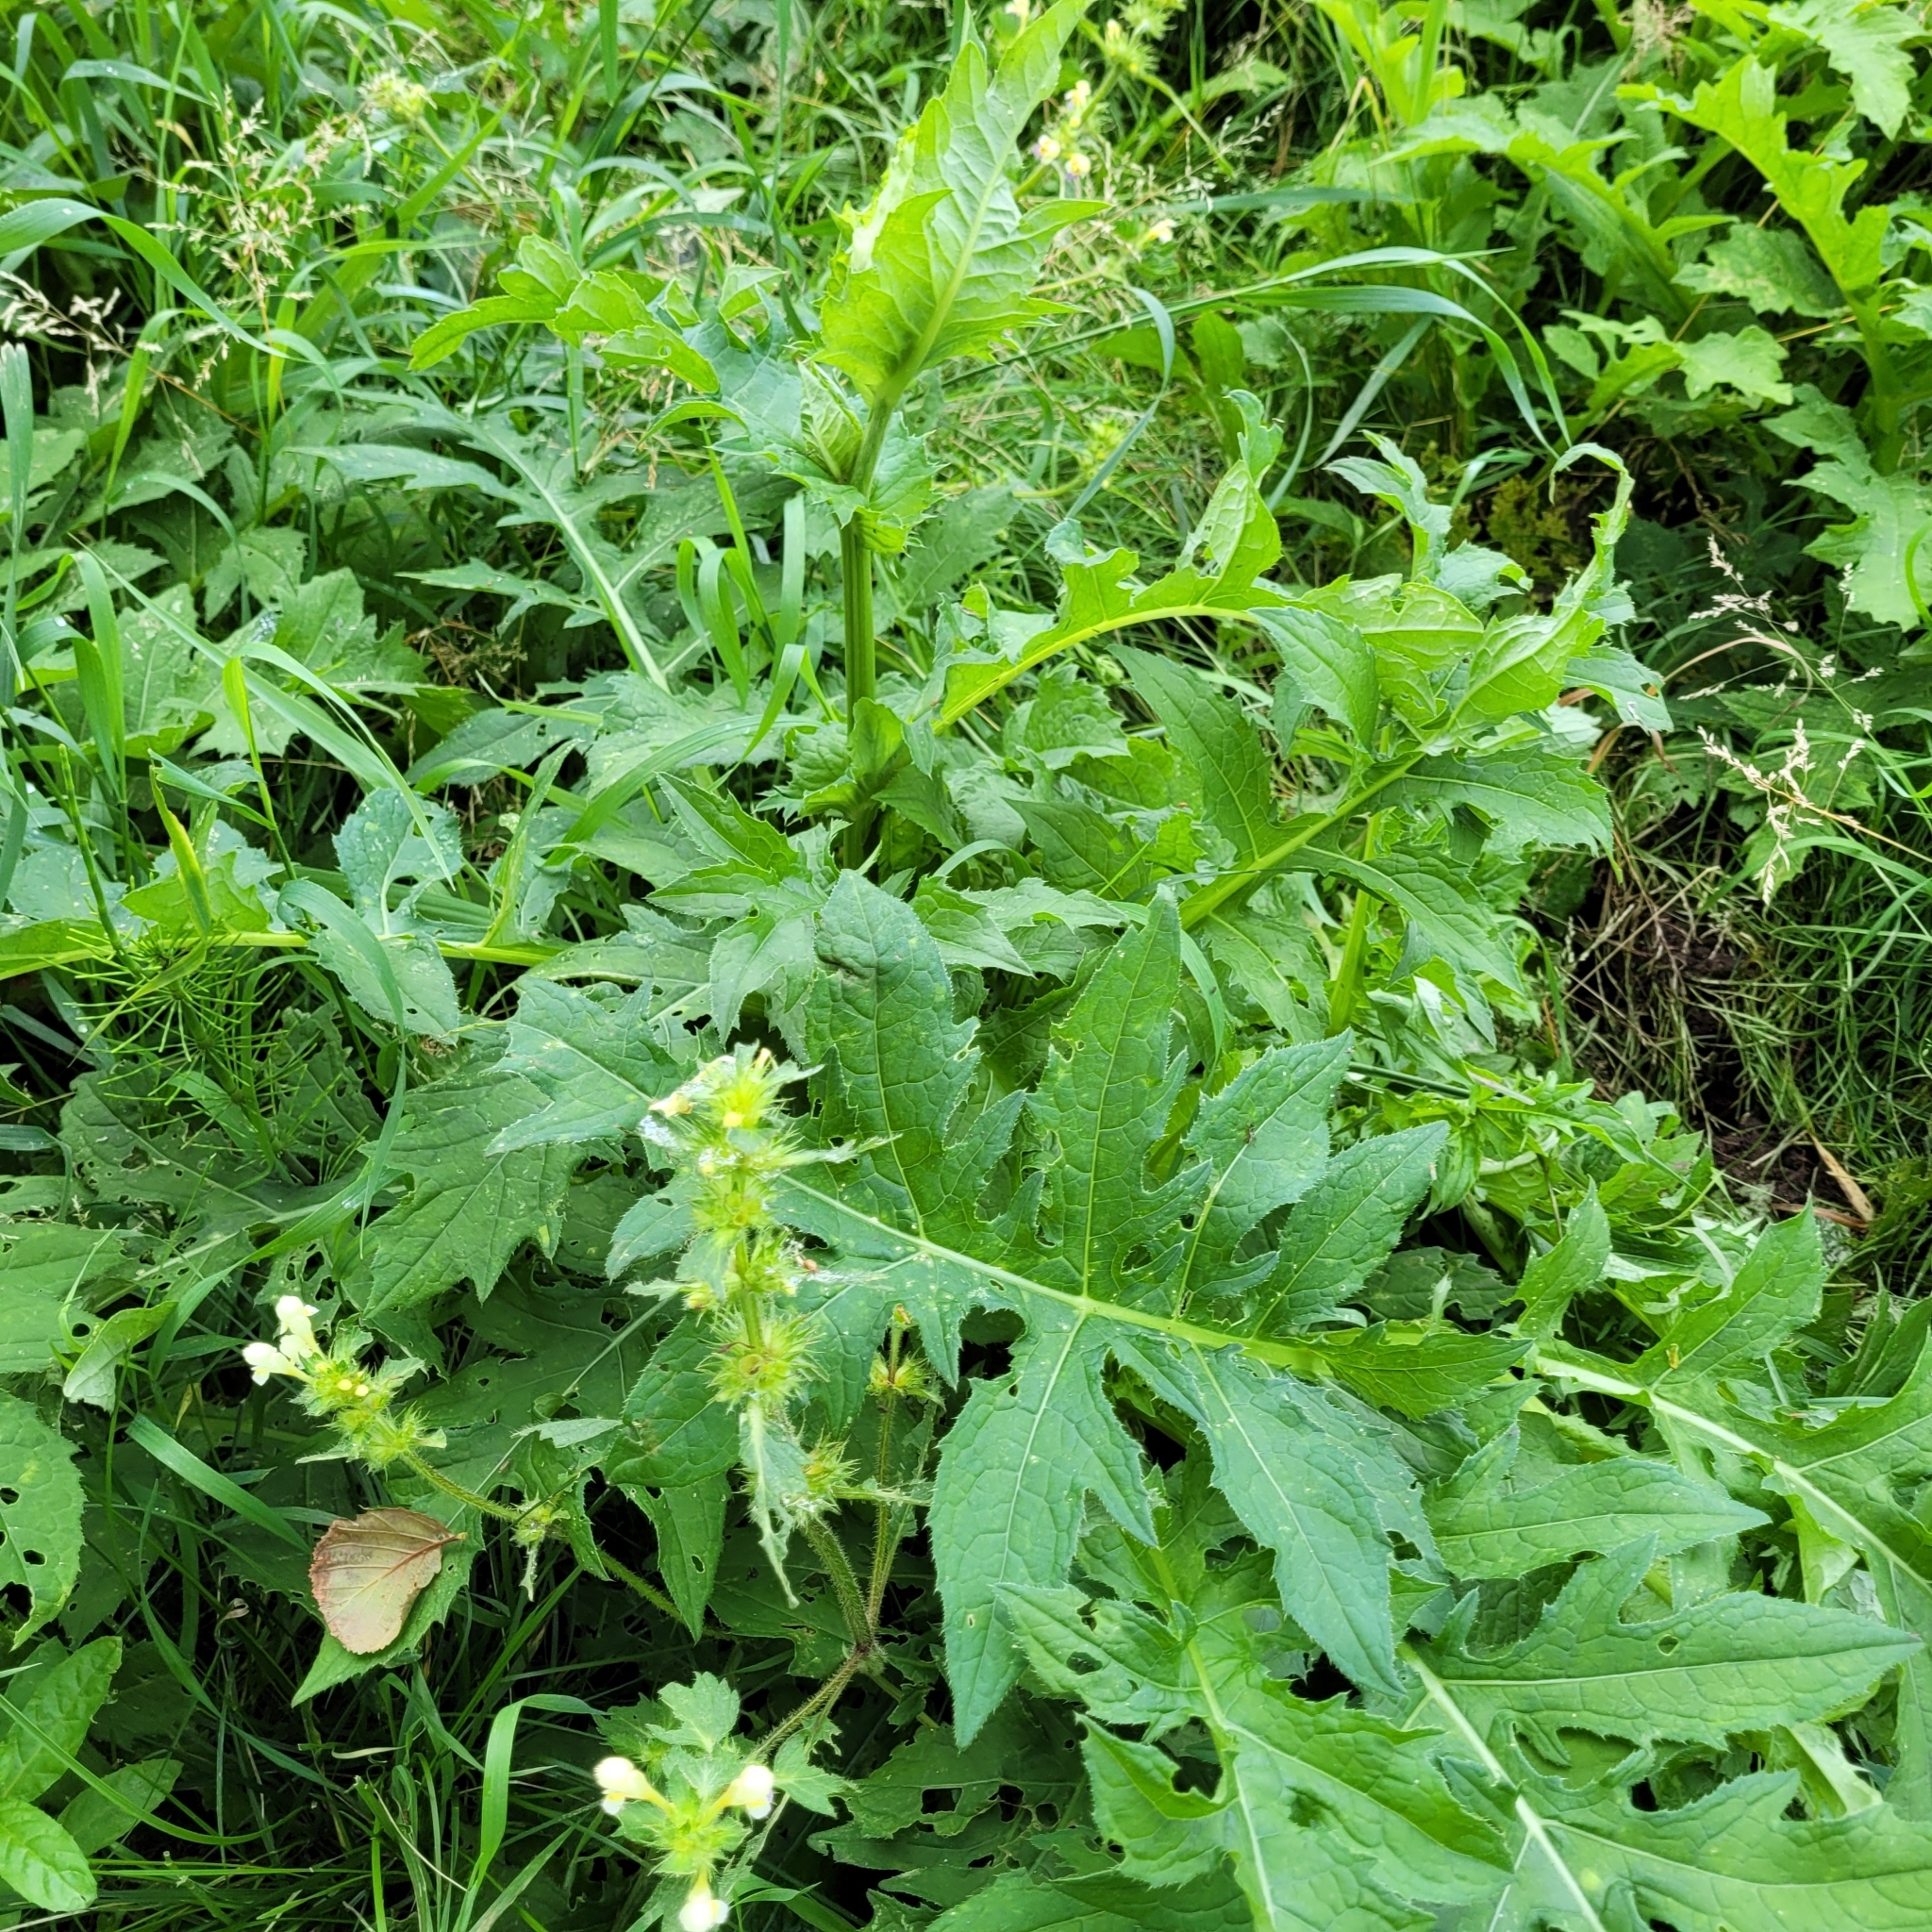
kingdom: Plantae
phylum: Tracheophyta
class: Magnoliopsida
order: Asterales
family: Asteraceae
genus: Cirsium
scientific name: Cirsium oleraceum
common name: Cabbage thistle
